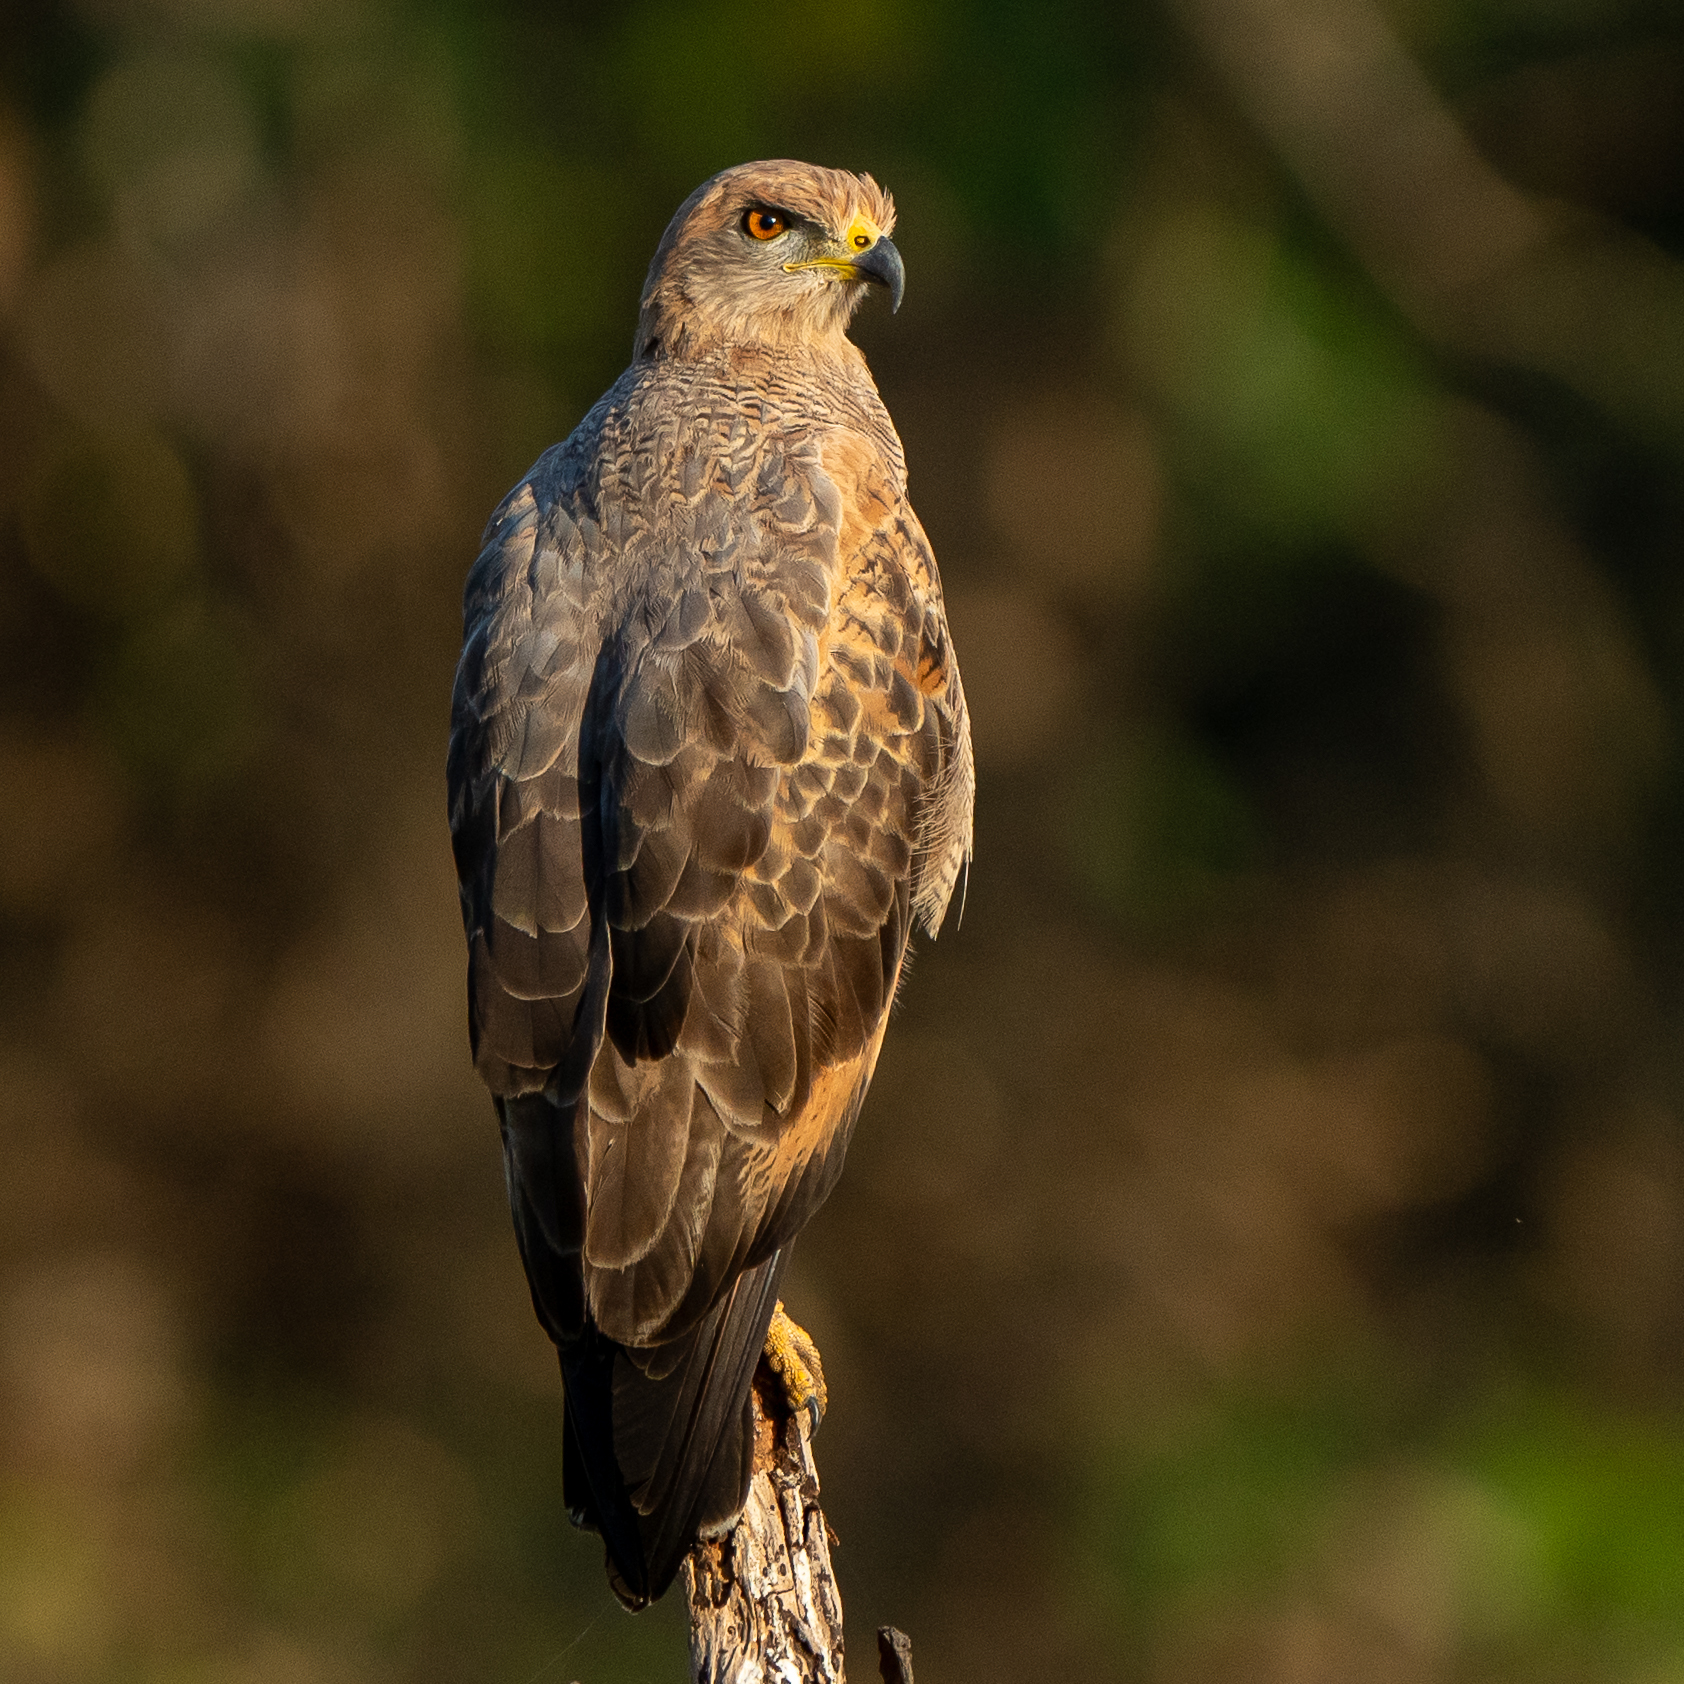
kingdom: Animalia
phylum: Chordata
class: Aves
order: Accipitriformes
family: Accipitridae
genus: Buteogallus
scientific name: Buteogallus meridionalis
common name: Savanna hawk
